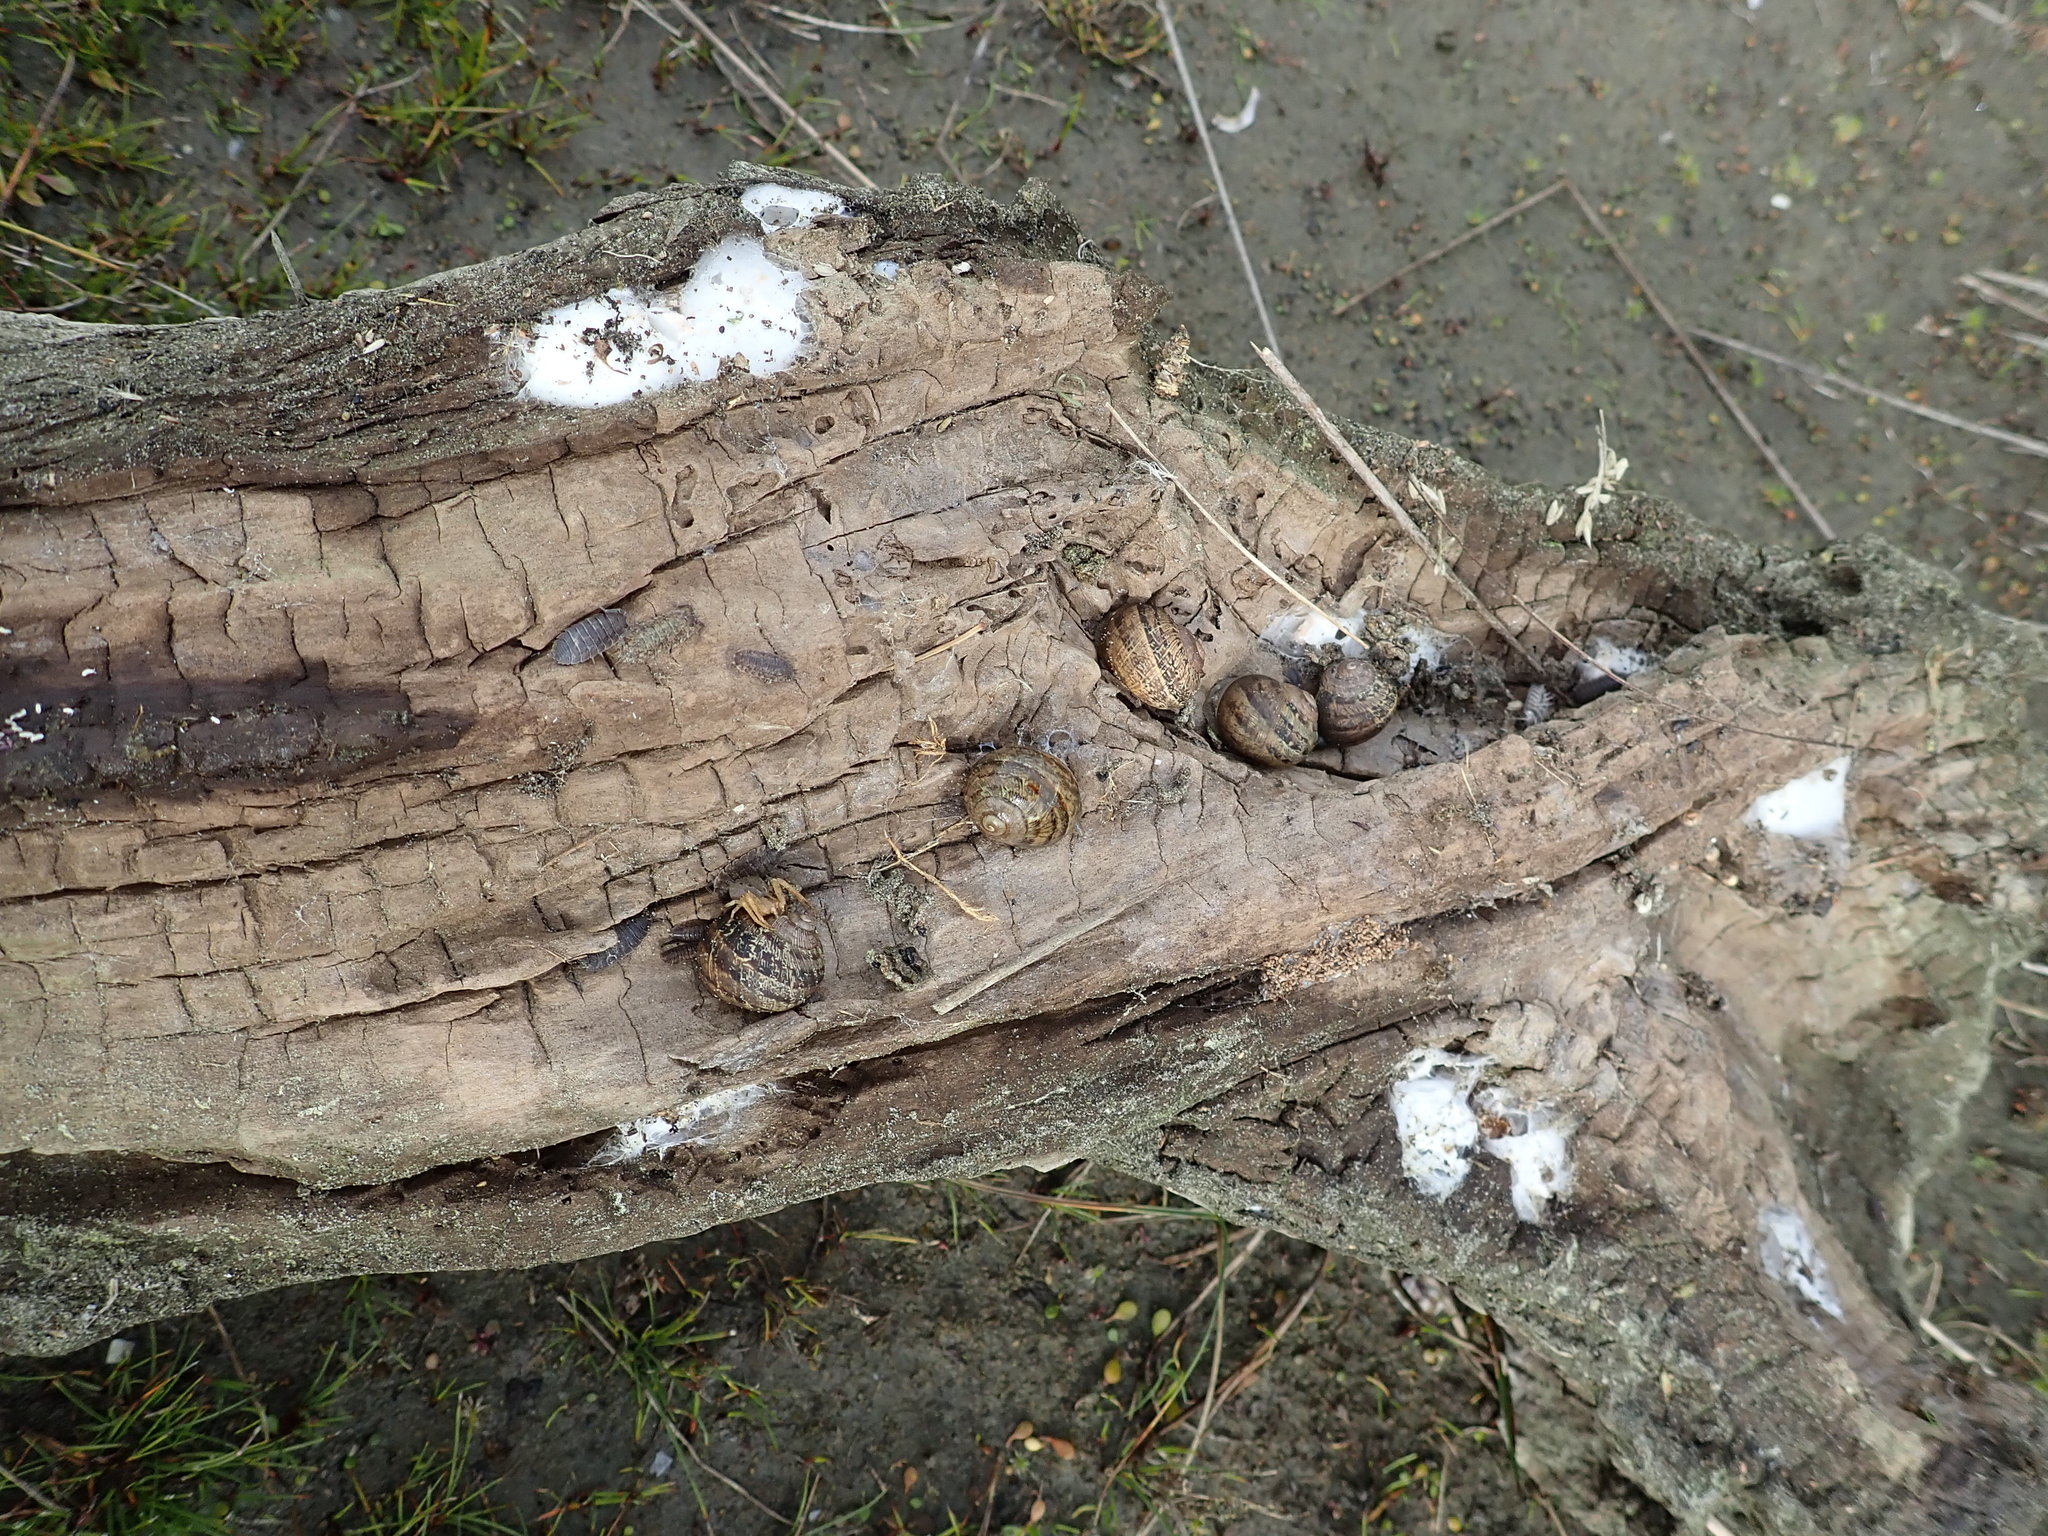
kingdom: Animalia
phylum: Mollusca
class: Gastropoda
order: Stylommatophora
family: Helicidae
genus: Cornu
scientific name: Cornu aspersum
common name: Brown garden snail
